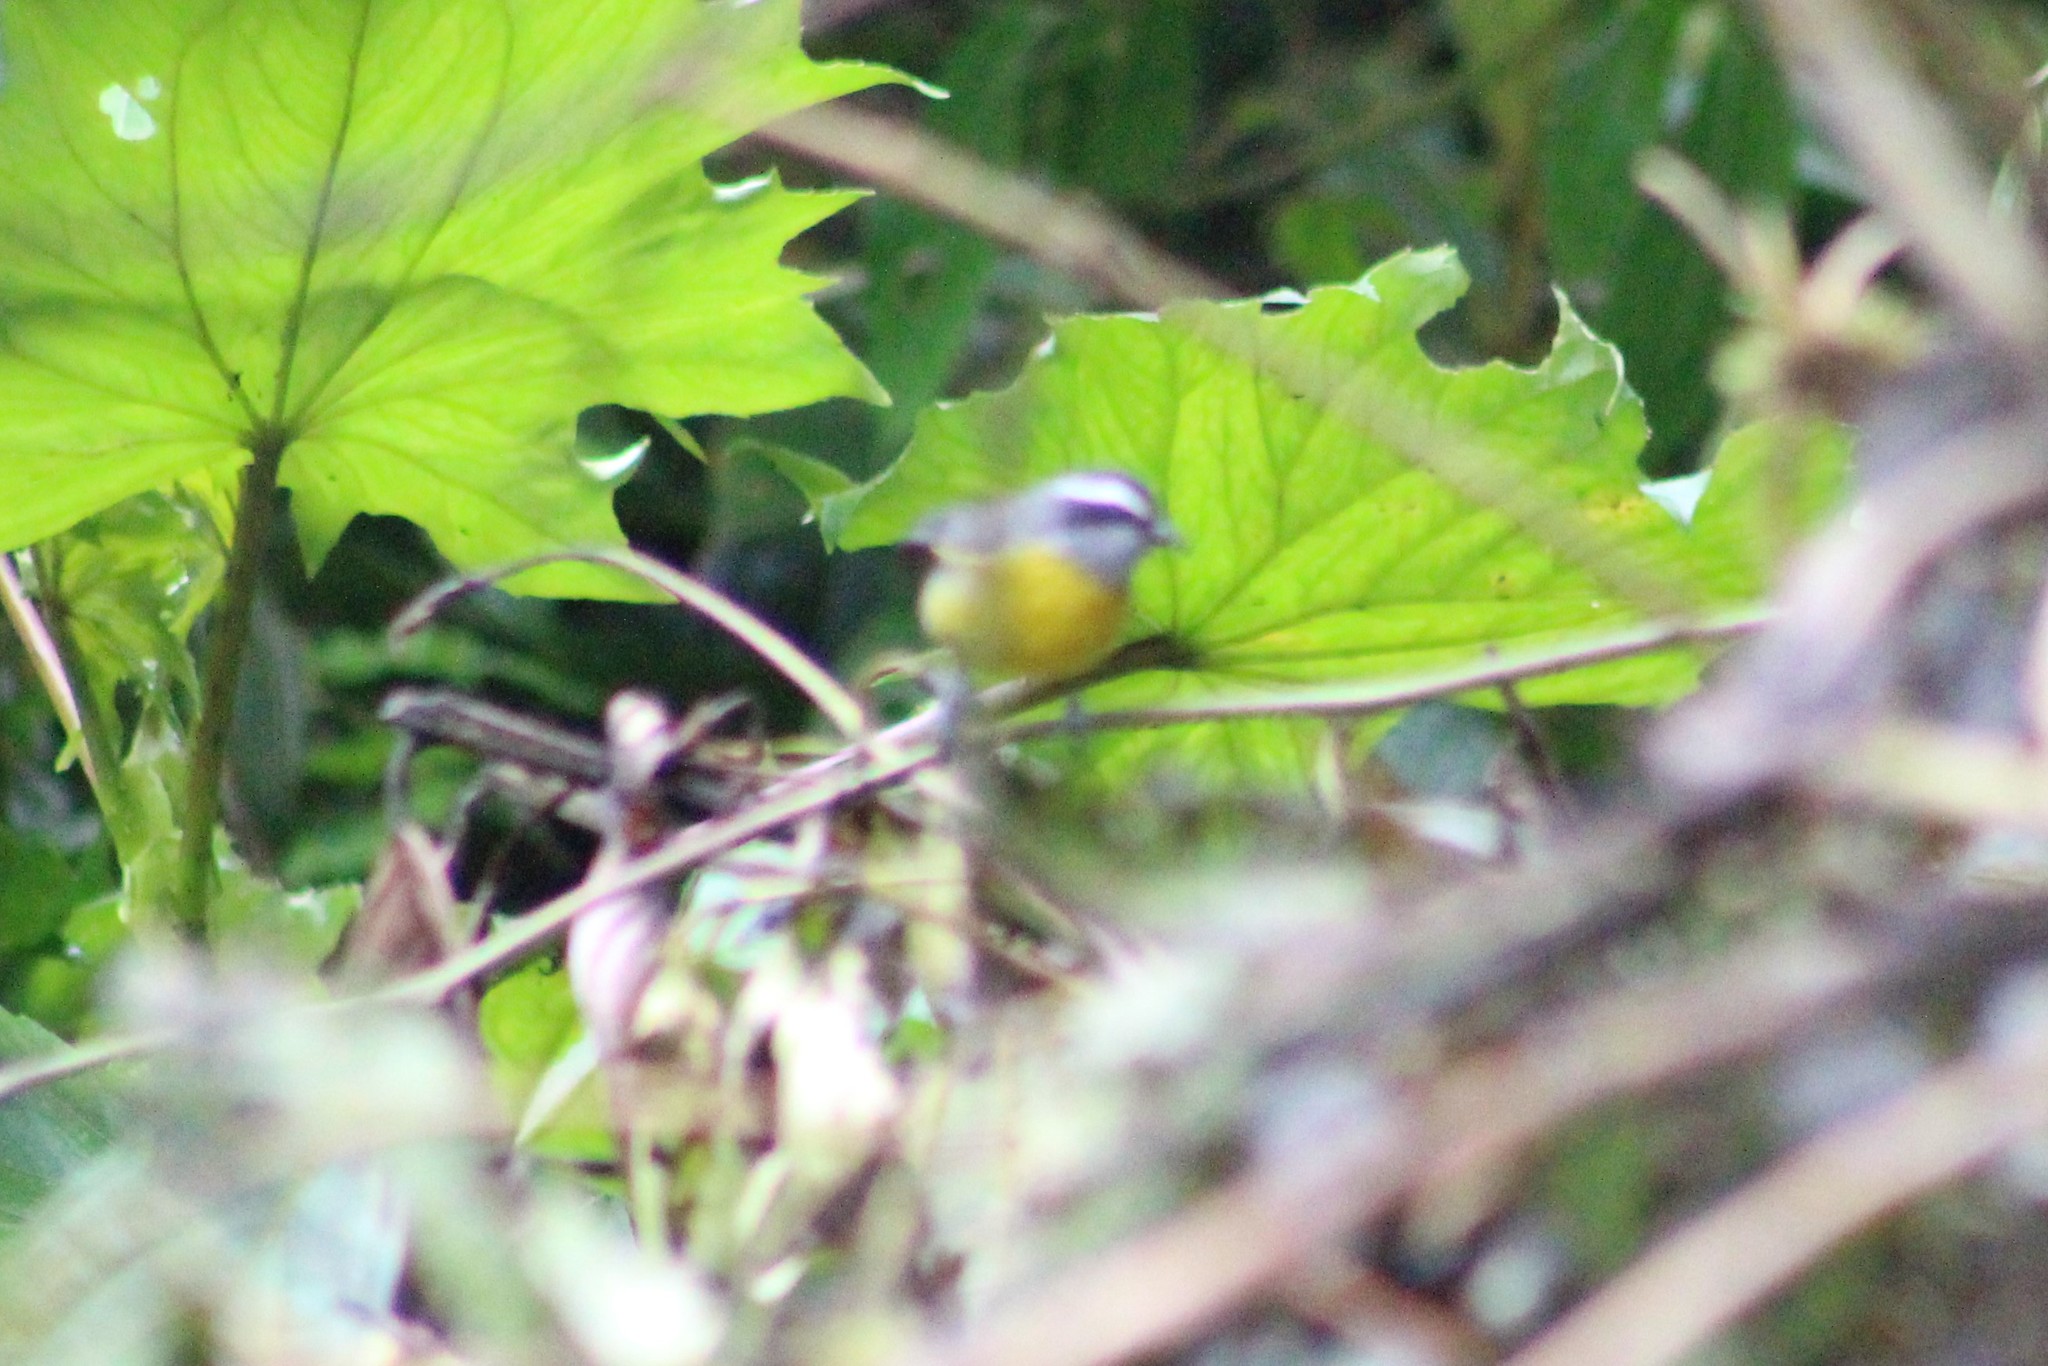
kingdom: Animalia
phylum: Chordata
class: Aves
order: Passeriformes
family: Thraupidae
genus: Coereba
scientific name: Coereba flaveola
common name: Bananaquit
